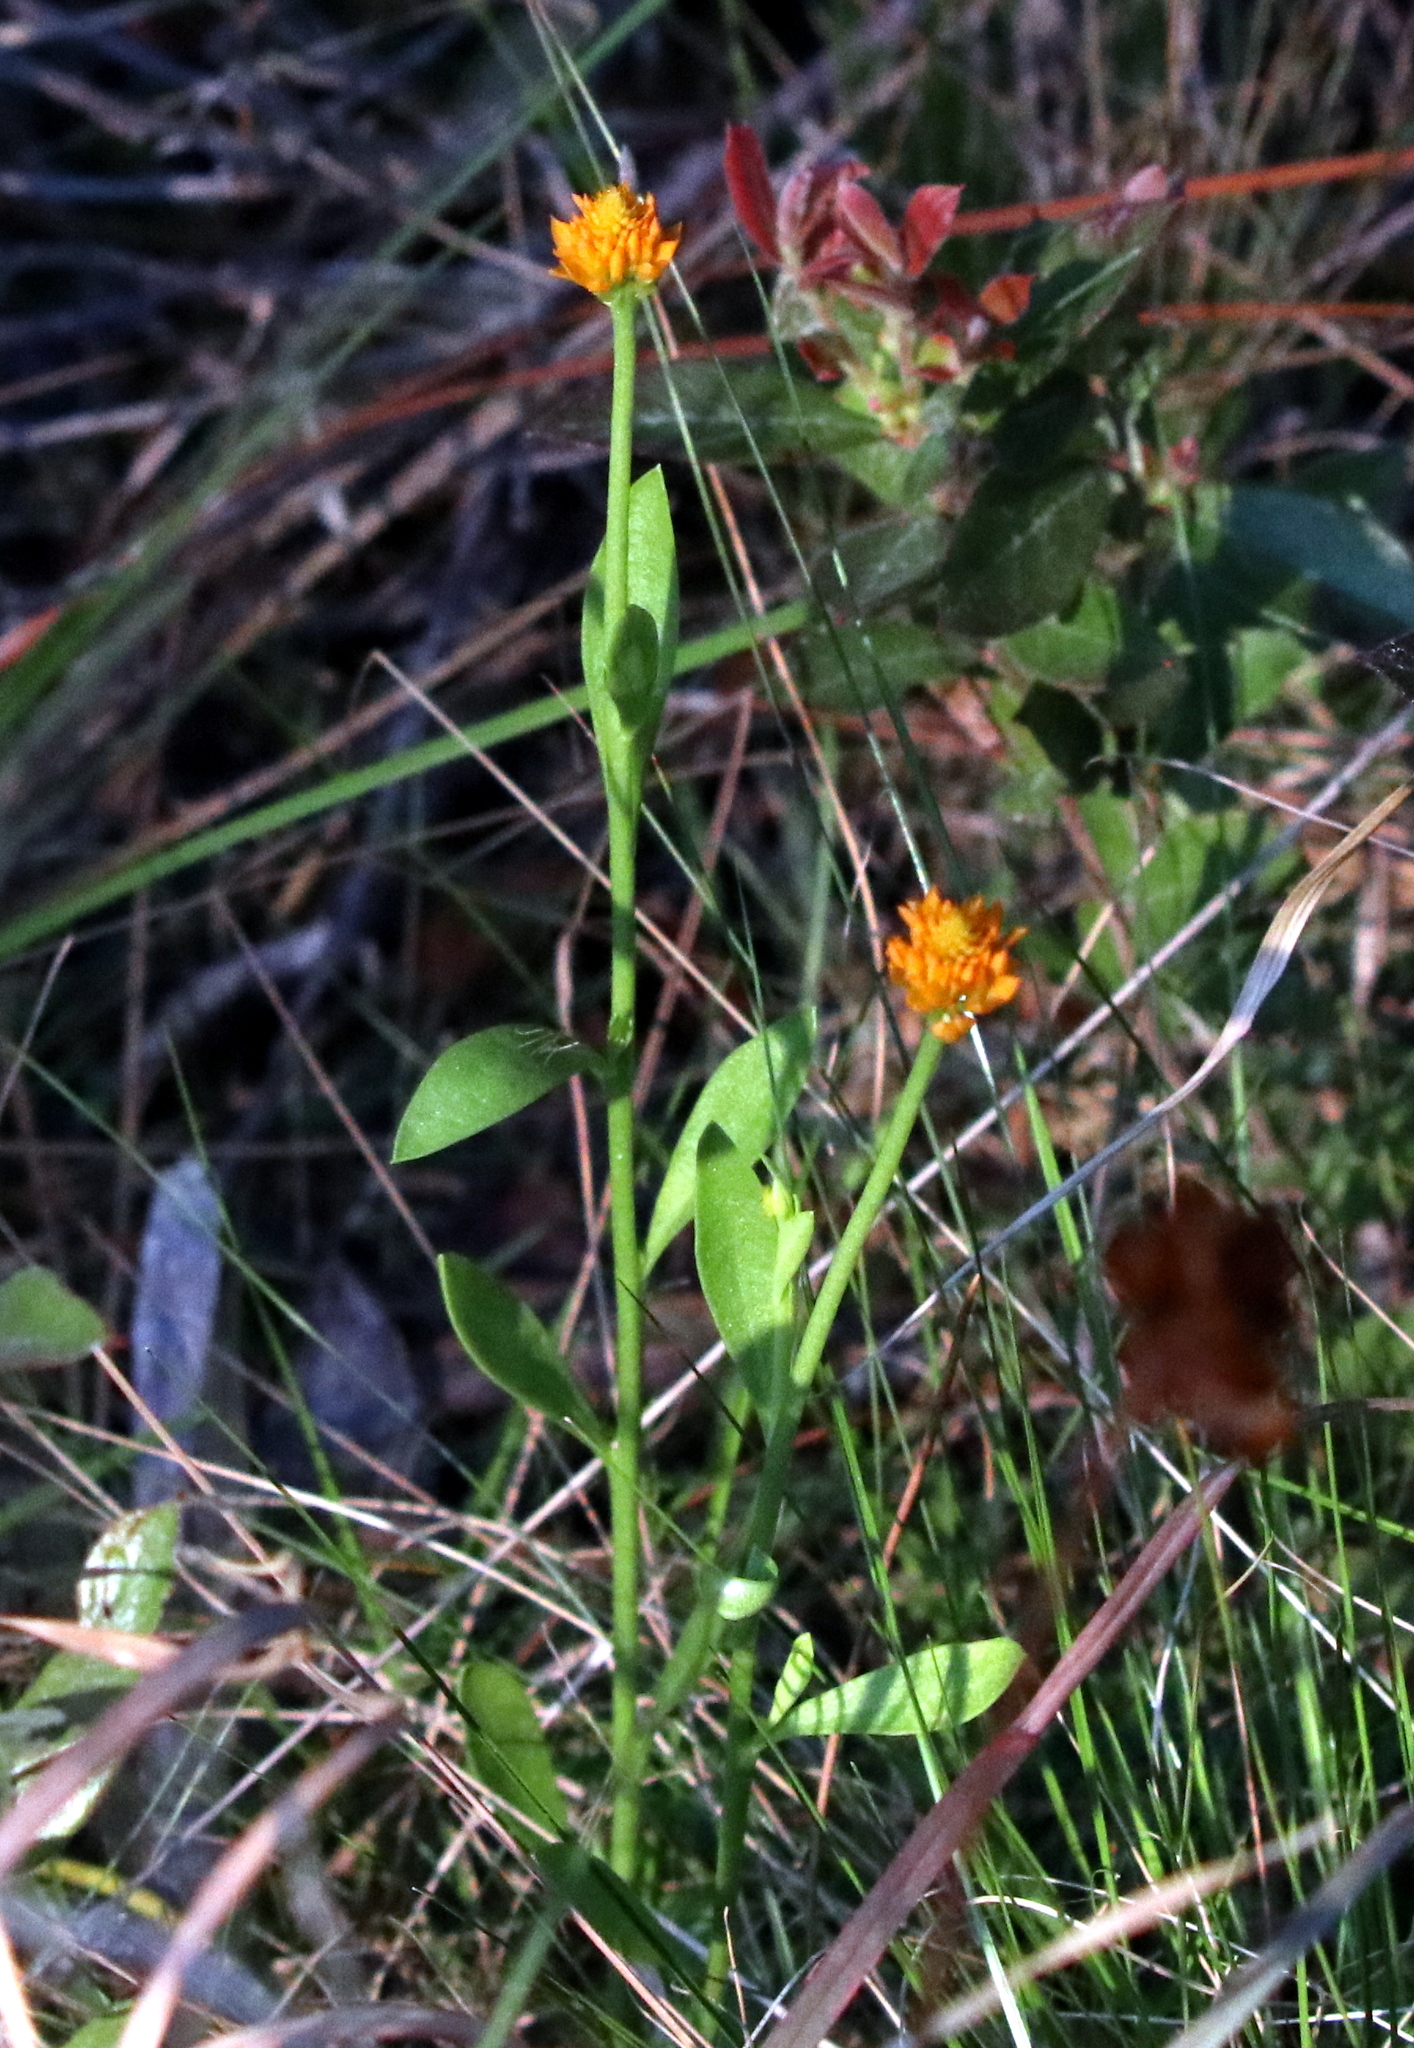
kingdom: Plantae
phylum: Tracheophyta
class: Magnoliopsida
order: Fabales
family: Polygalaceae
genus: Polygala
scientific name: Polygala lutea
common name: Orange milkwort
